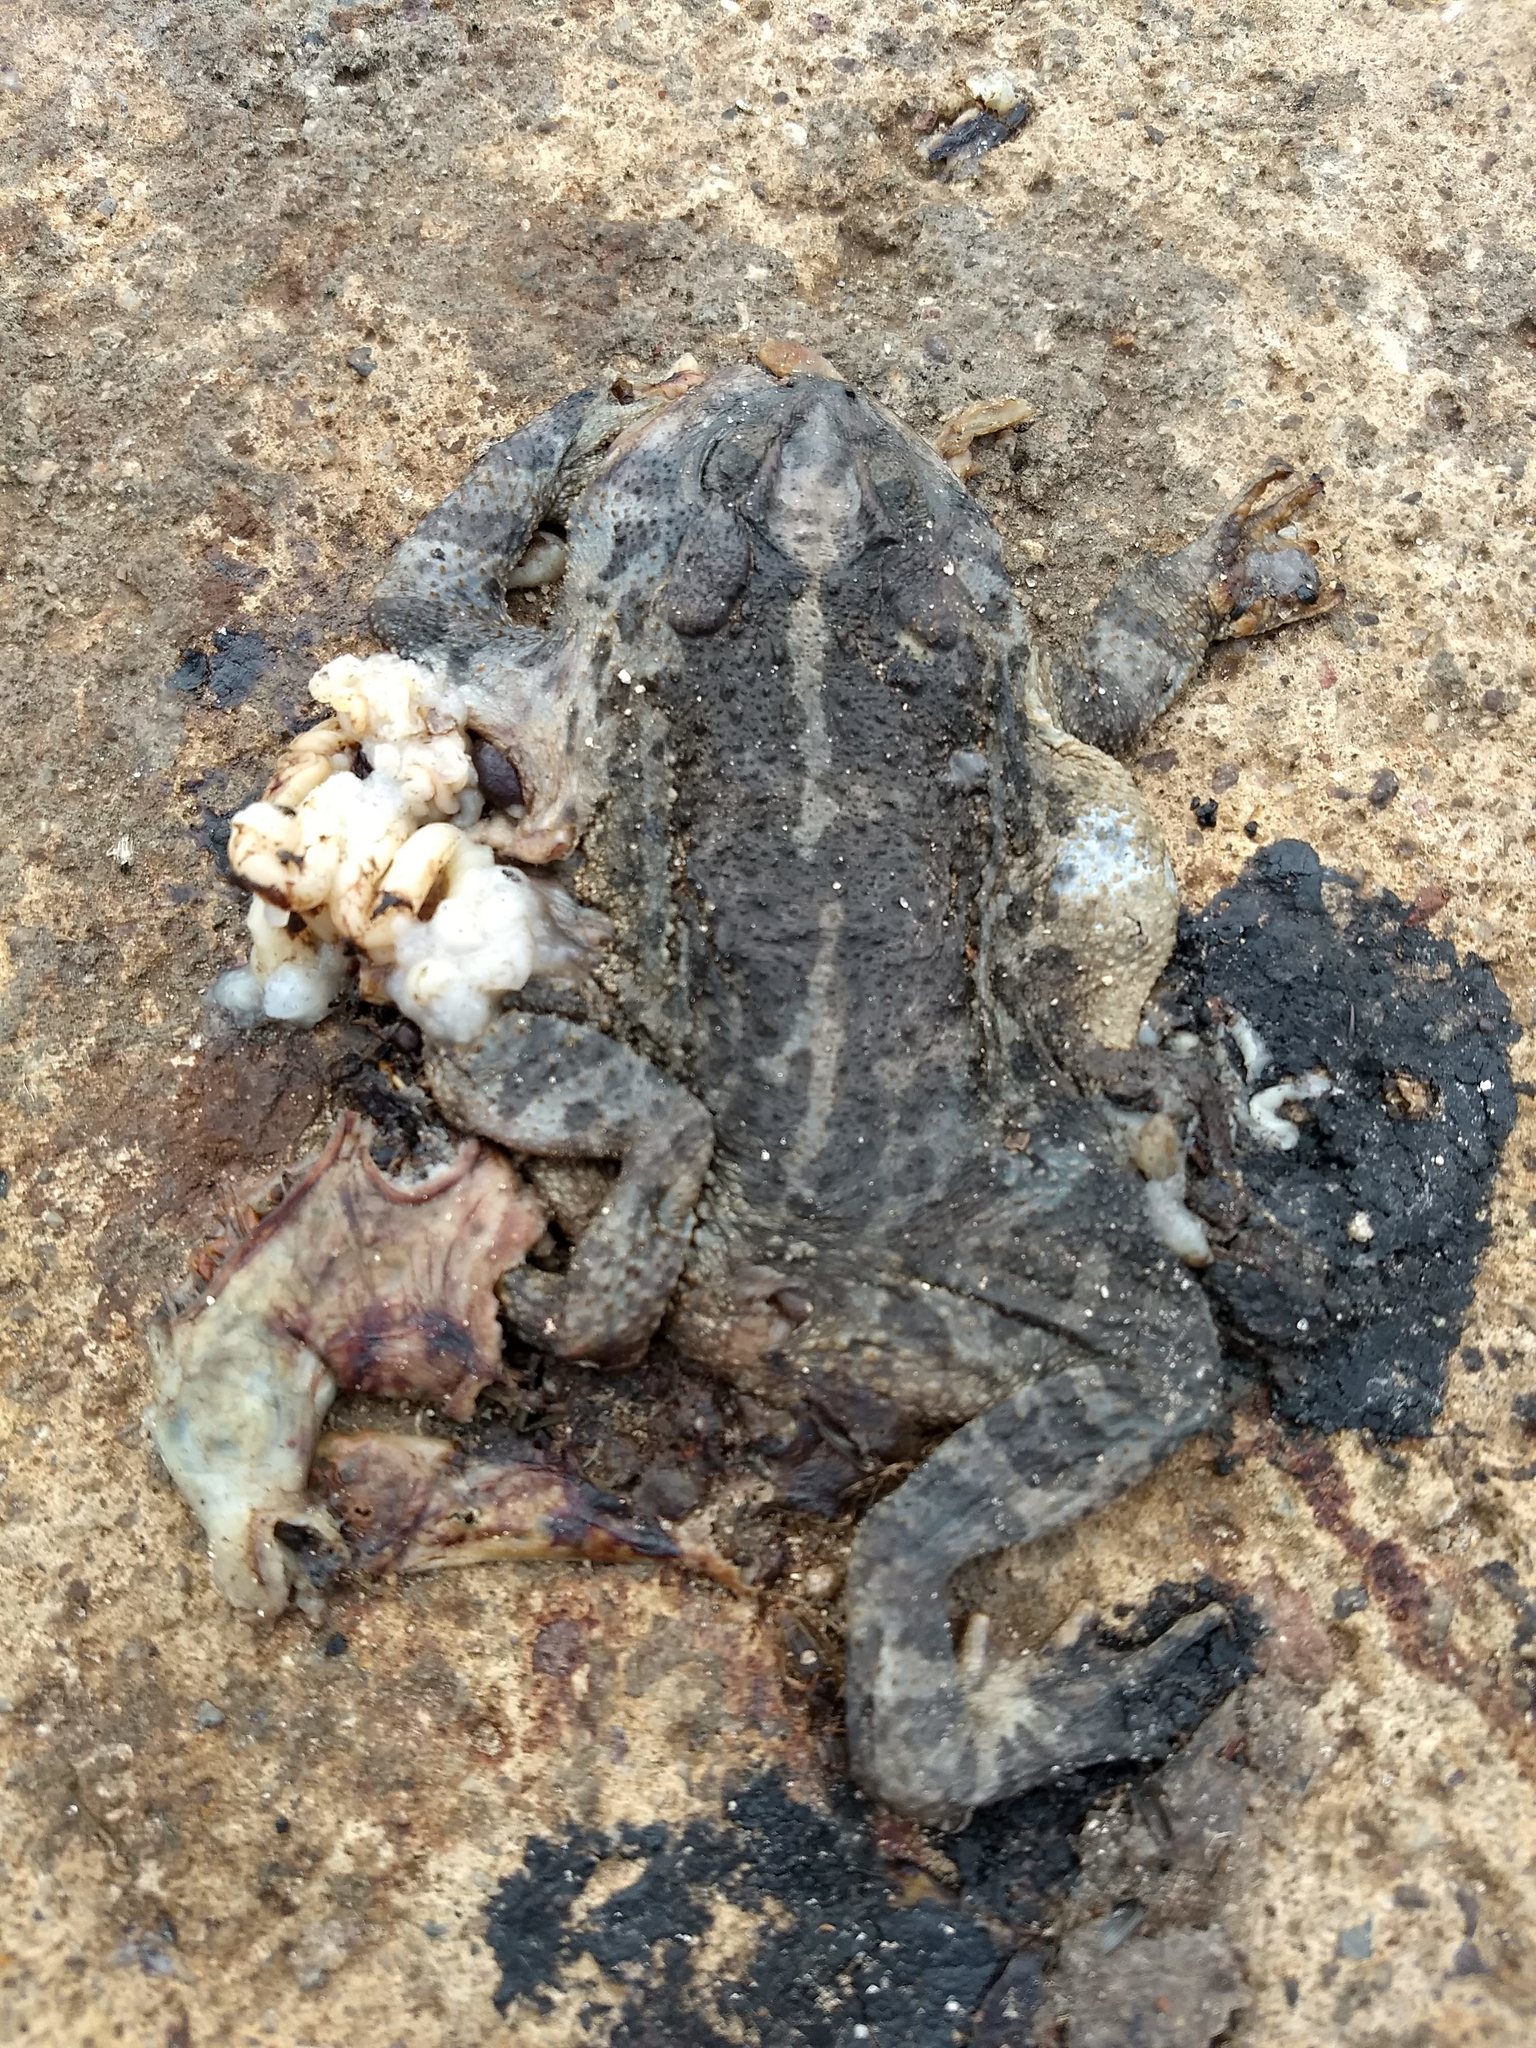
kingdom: Animalia
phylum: Chordata
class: Amphibia
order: Anura
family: Bufonidae
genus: Incilius
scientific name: Incilius occidentalis
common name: Pine toad
